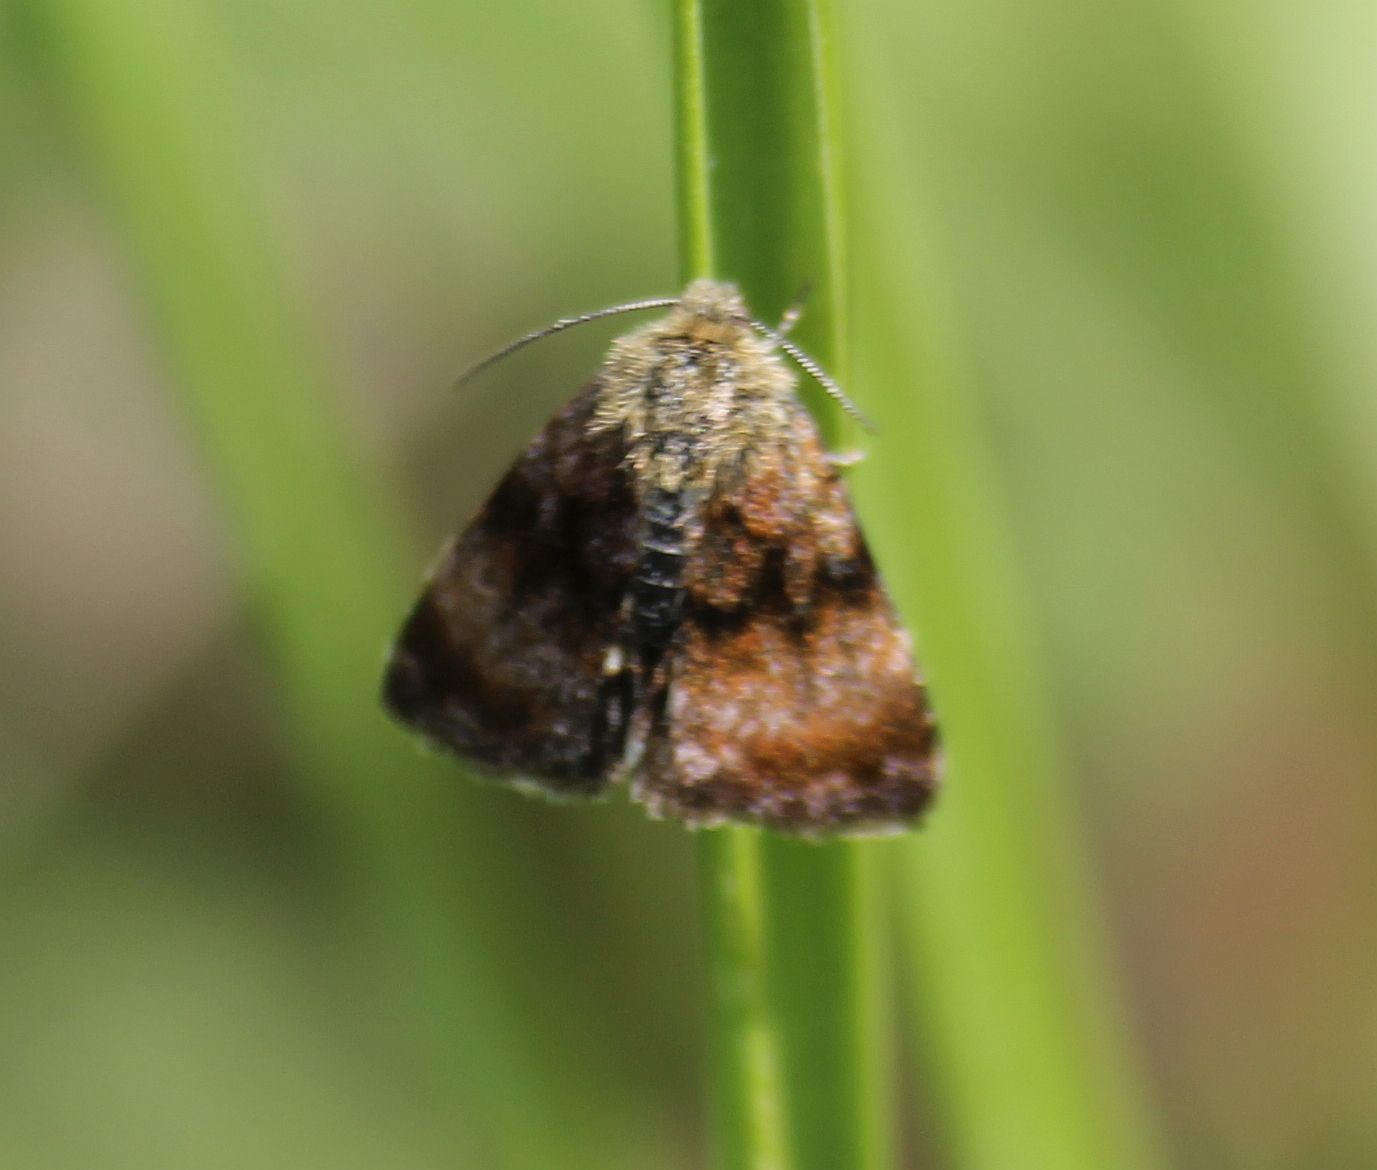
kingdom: Animalia
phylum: Arthropoda
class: Insecta
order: Lepidoptera
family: Noctuidae
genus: Panemeria
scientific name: Panemeria tenebrata
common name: Small yellow underwing
